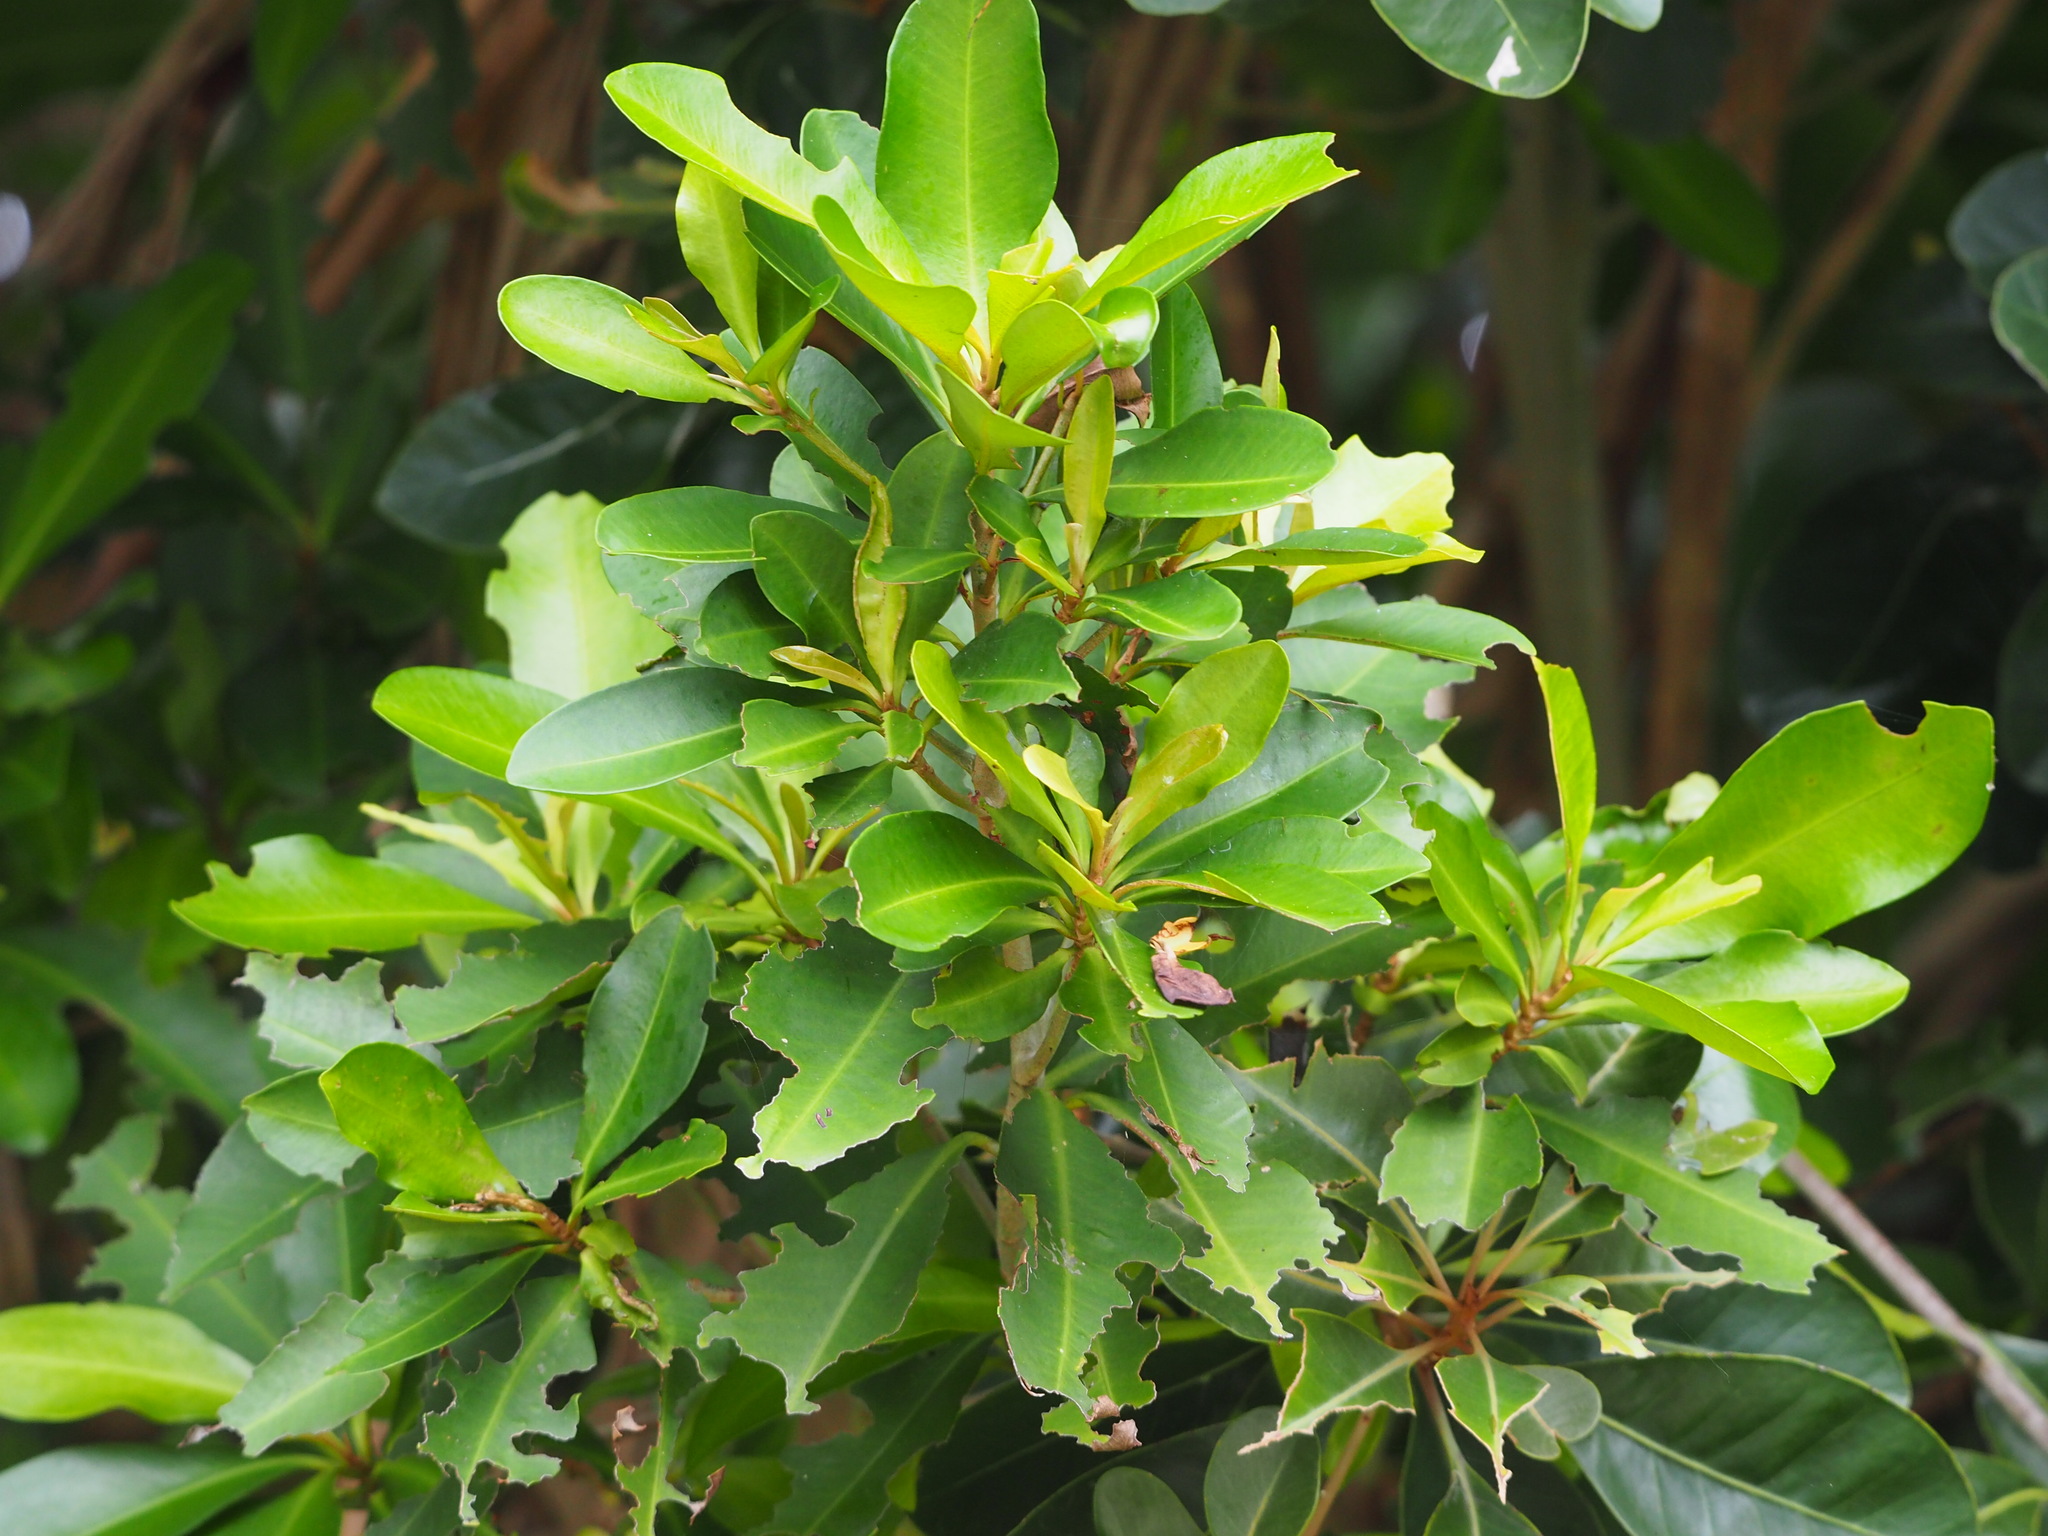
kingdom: Plantae
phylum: Tracheophyta
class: Magnoliopsida
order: Ericales
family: Primulaceae
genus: Ardisia
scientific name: Ardisia sieboldii
